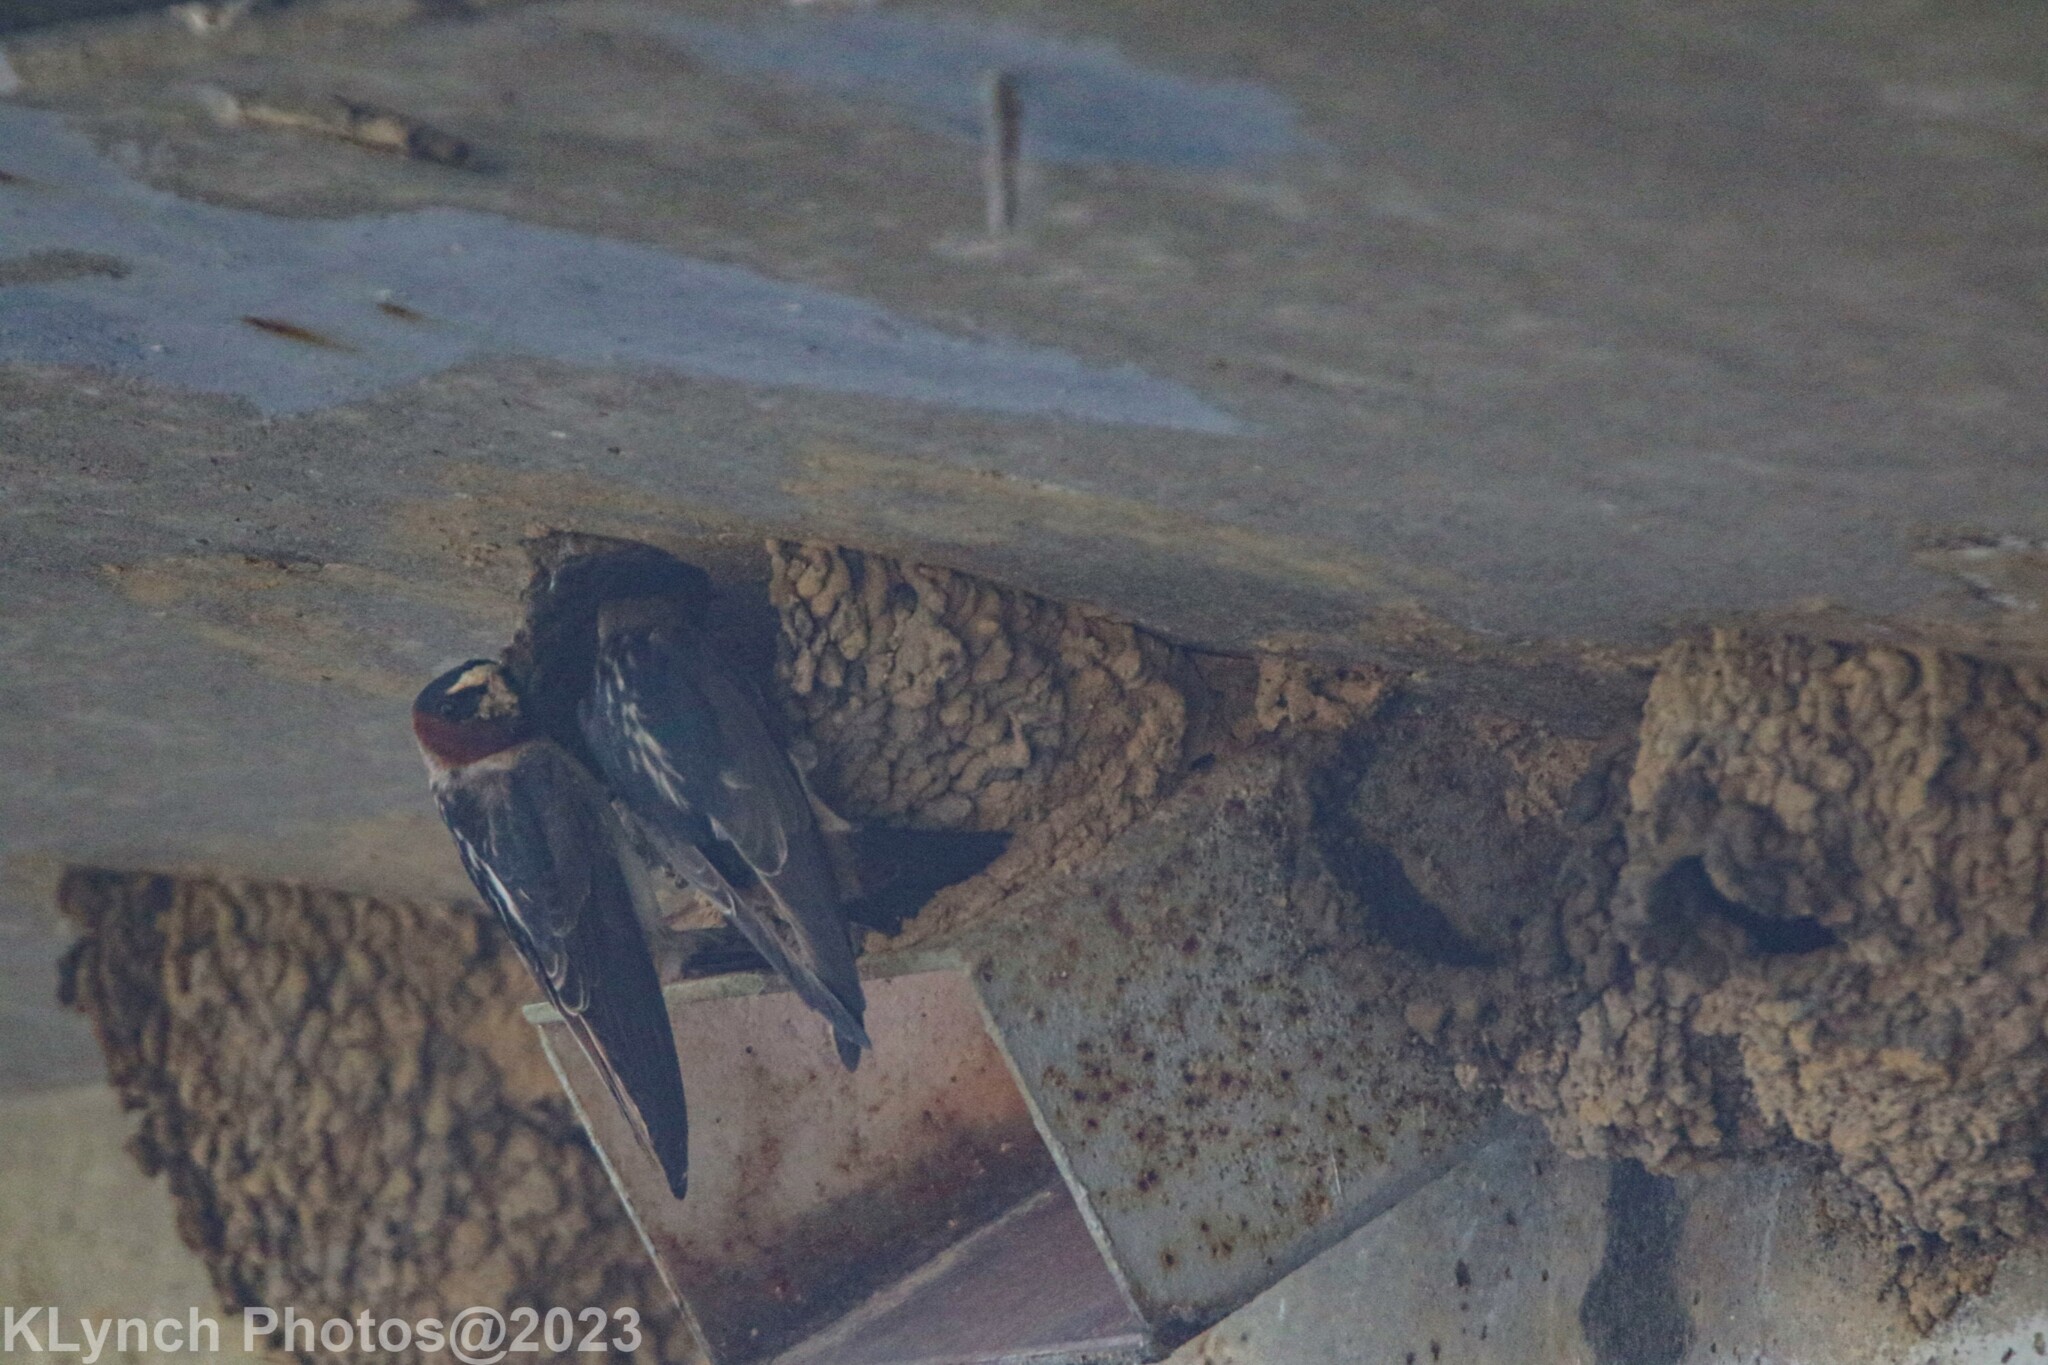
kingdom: Animalia
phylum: Chordata
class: Aves
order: Passeriformes
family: Hirundinidae
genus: Petrochelidon
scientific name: Petrochelidon pyrrhonota
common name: American cliff swallow
